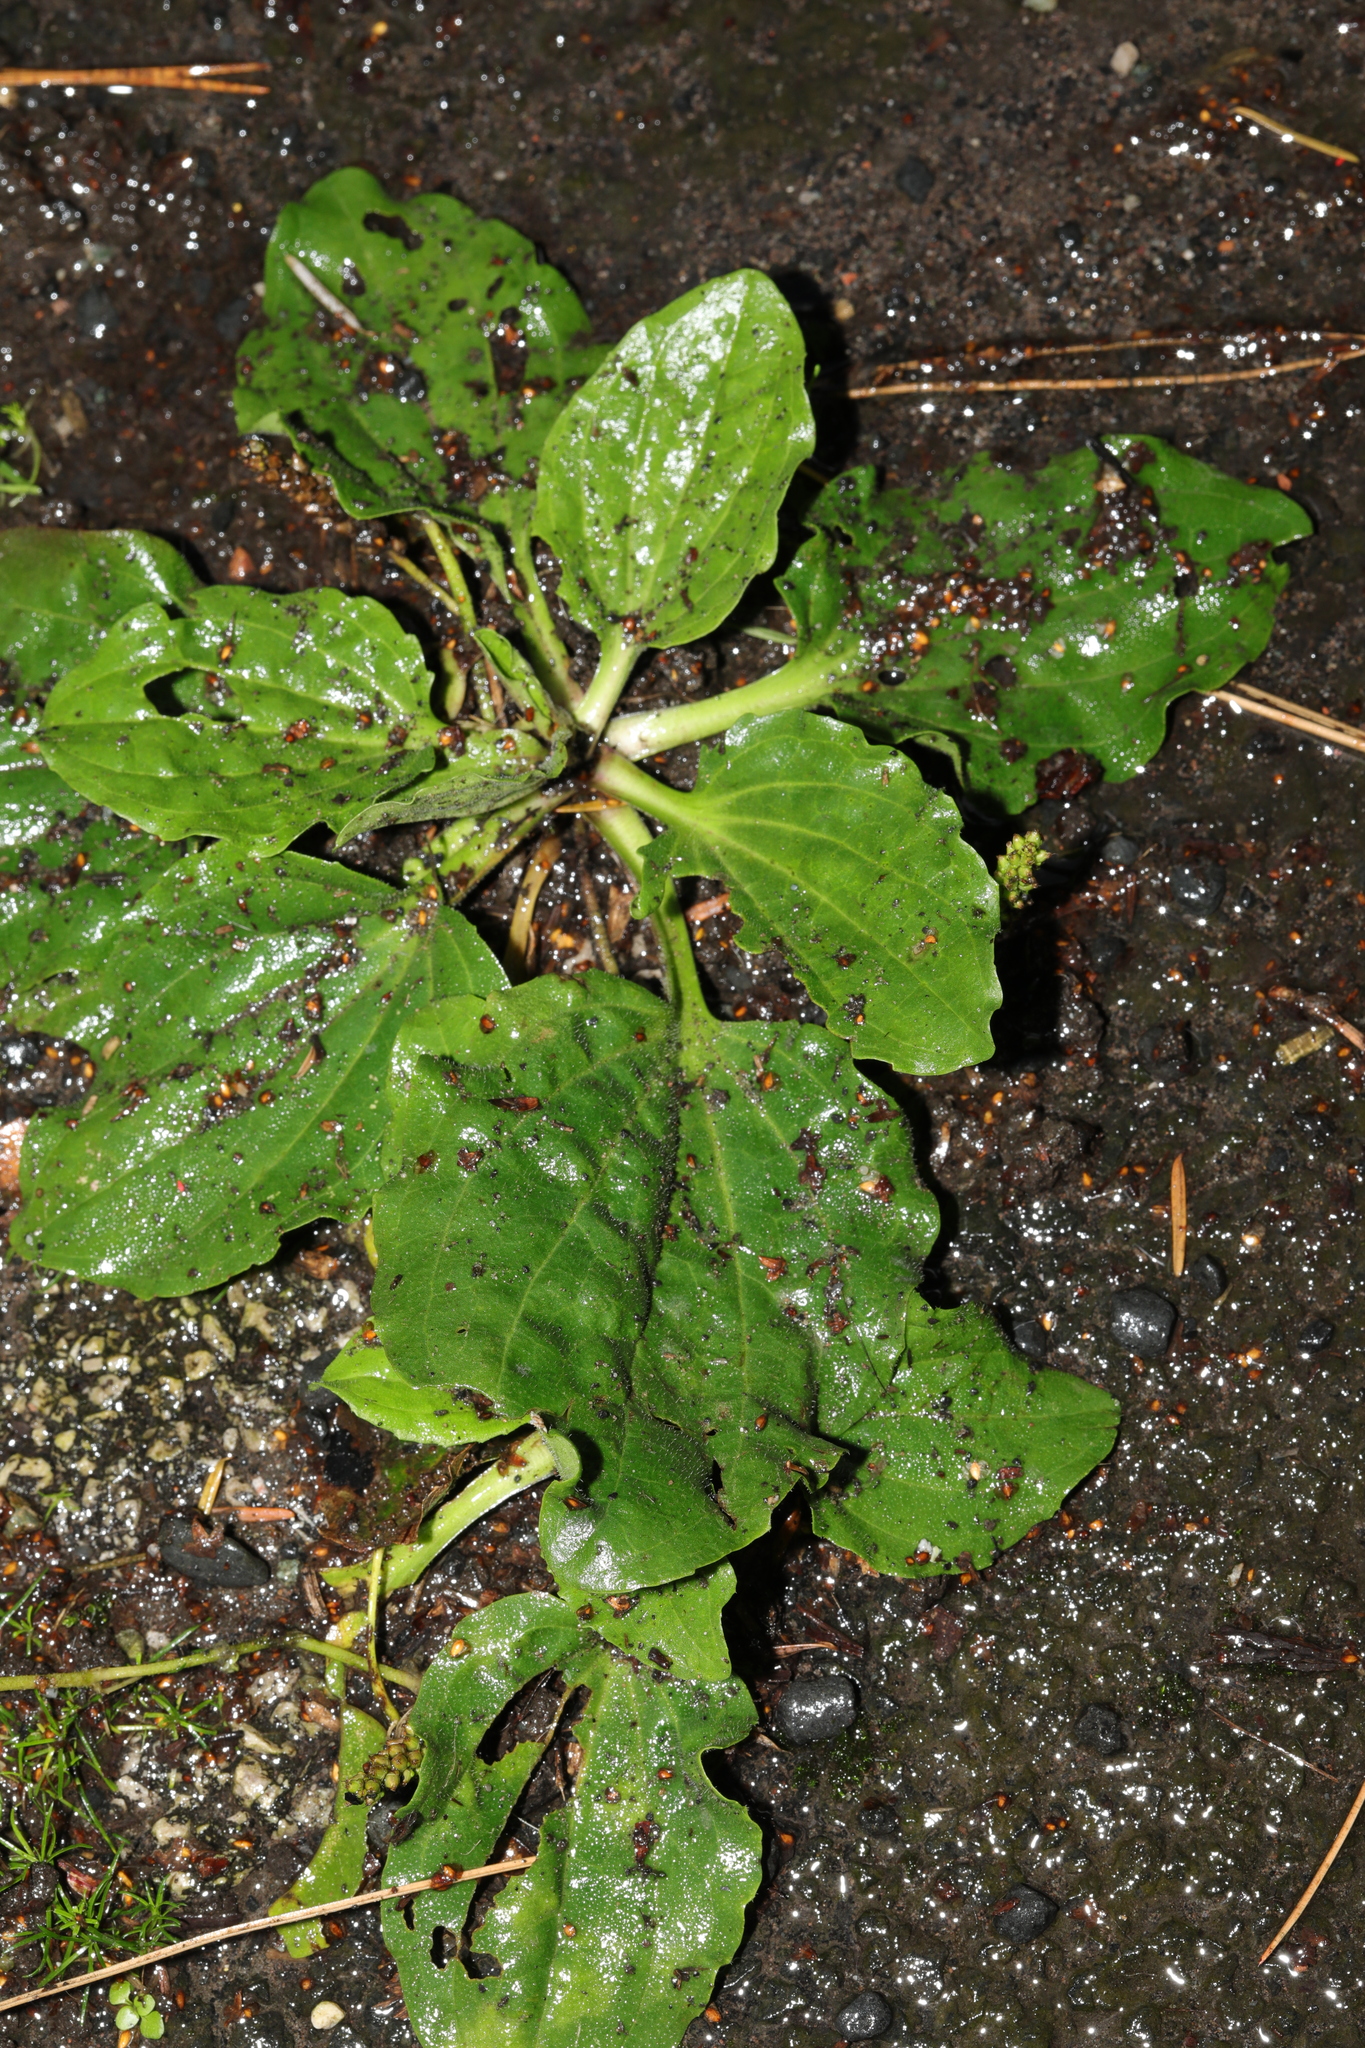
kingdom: Plantae
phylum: Tracheophyta
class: Magnoliopsida
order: Lamiales
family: Plantaginaceae
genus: Plantago
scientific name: Plantago major
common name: Common plantain
